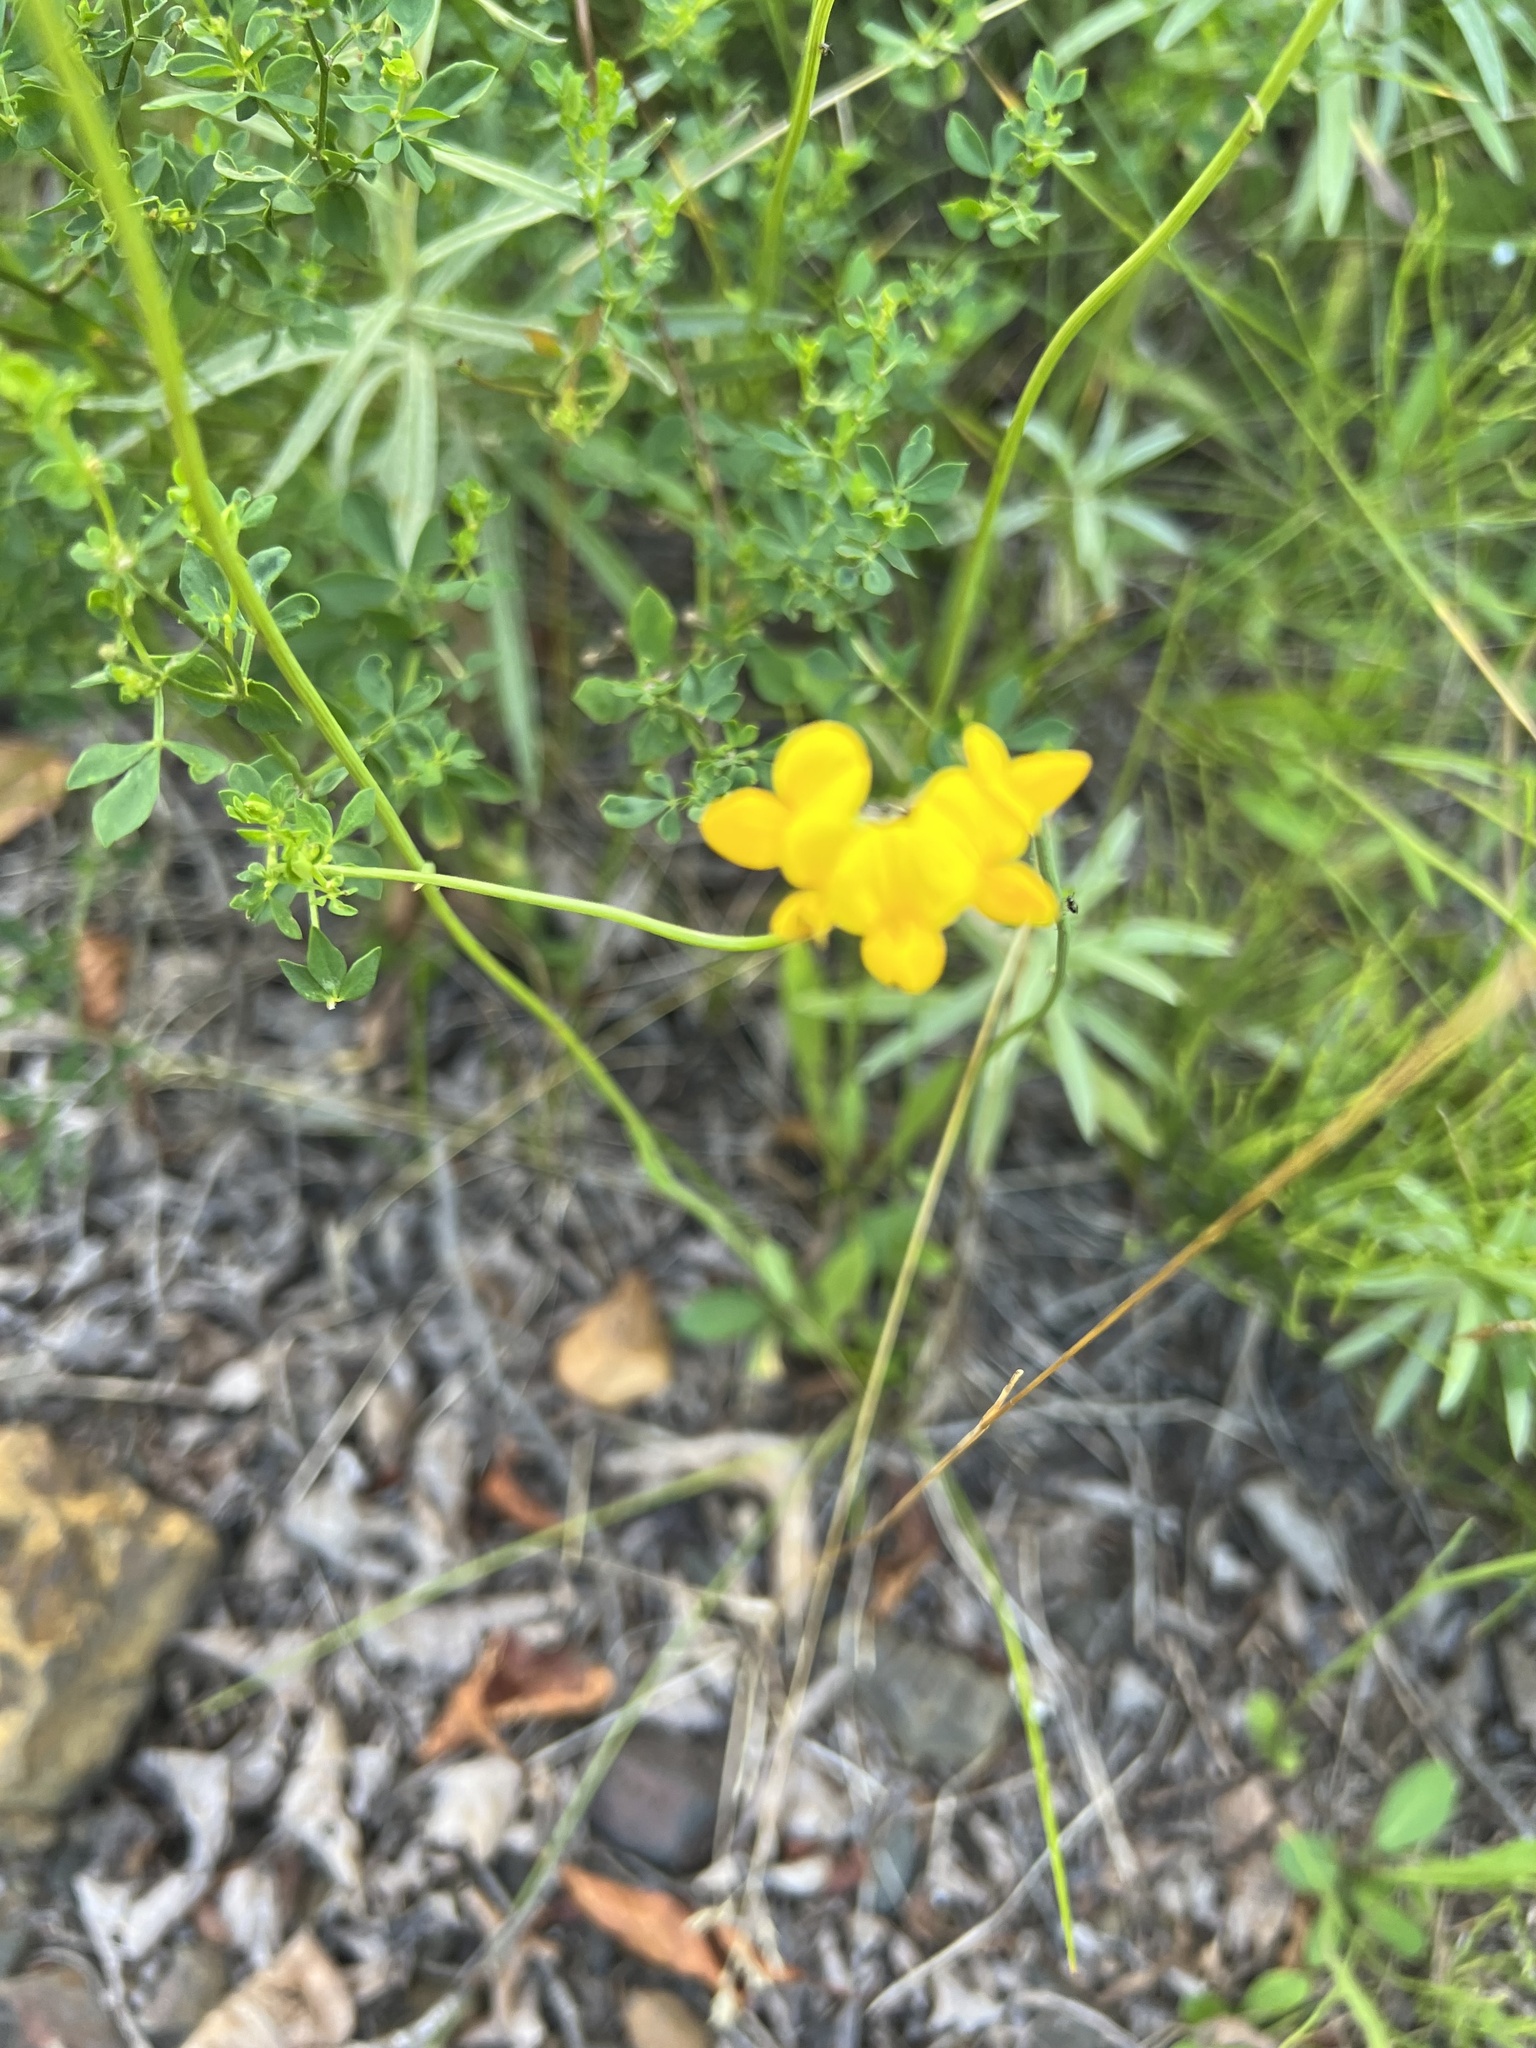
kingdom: Plantae
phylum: Tracheophyta
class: Magnoliopsida
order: Fabales
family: Fabaceae
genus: Lotus
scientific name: Lotus corniculatus
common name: Common bird's-foot-trefoil
